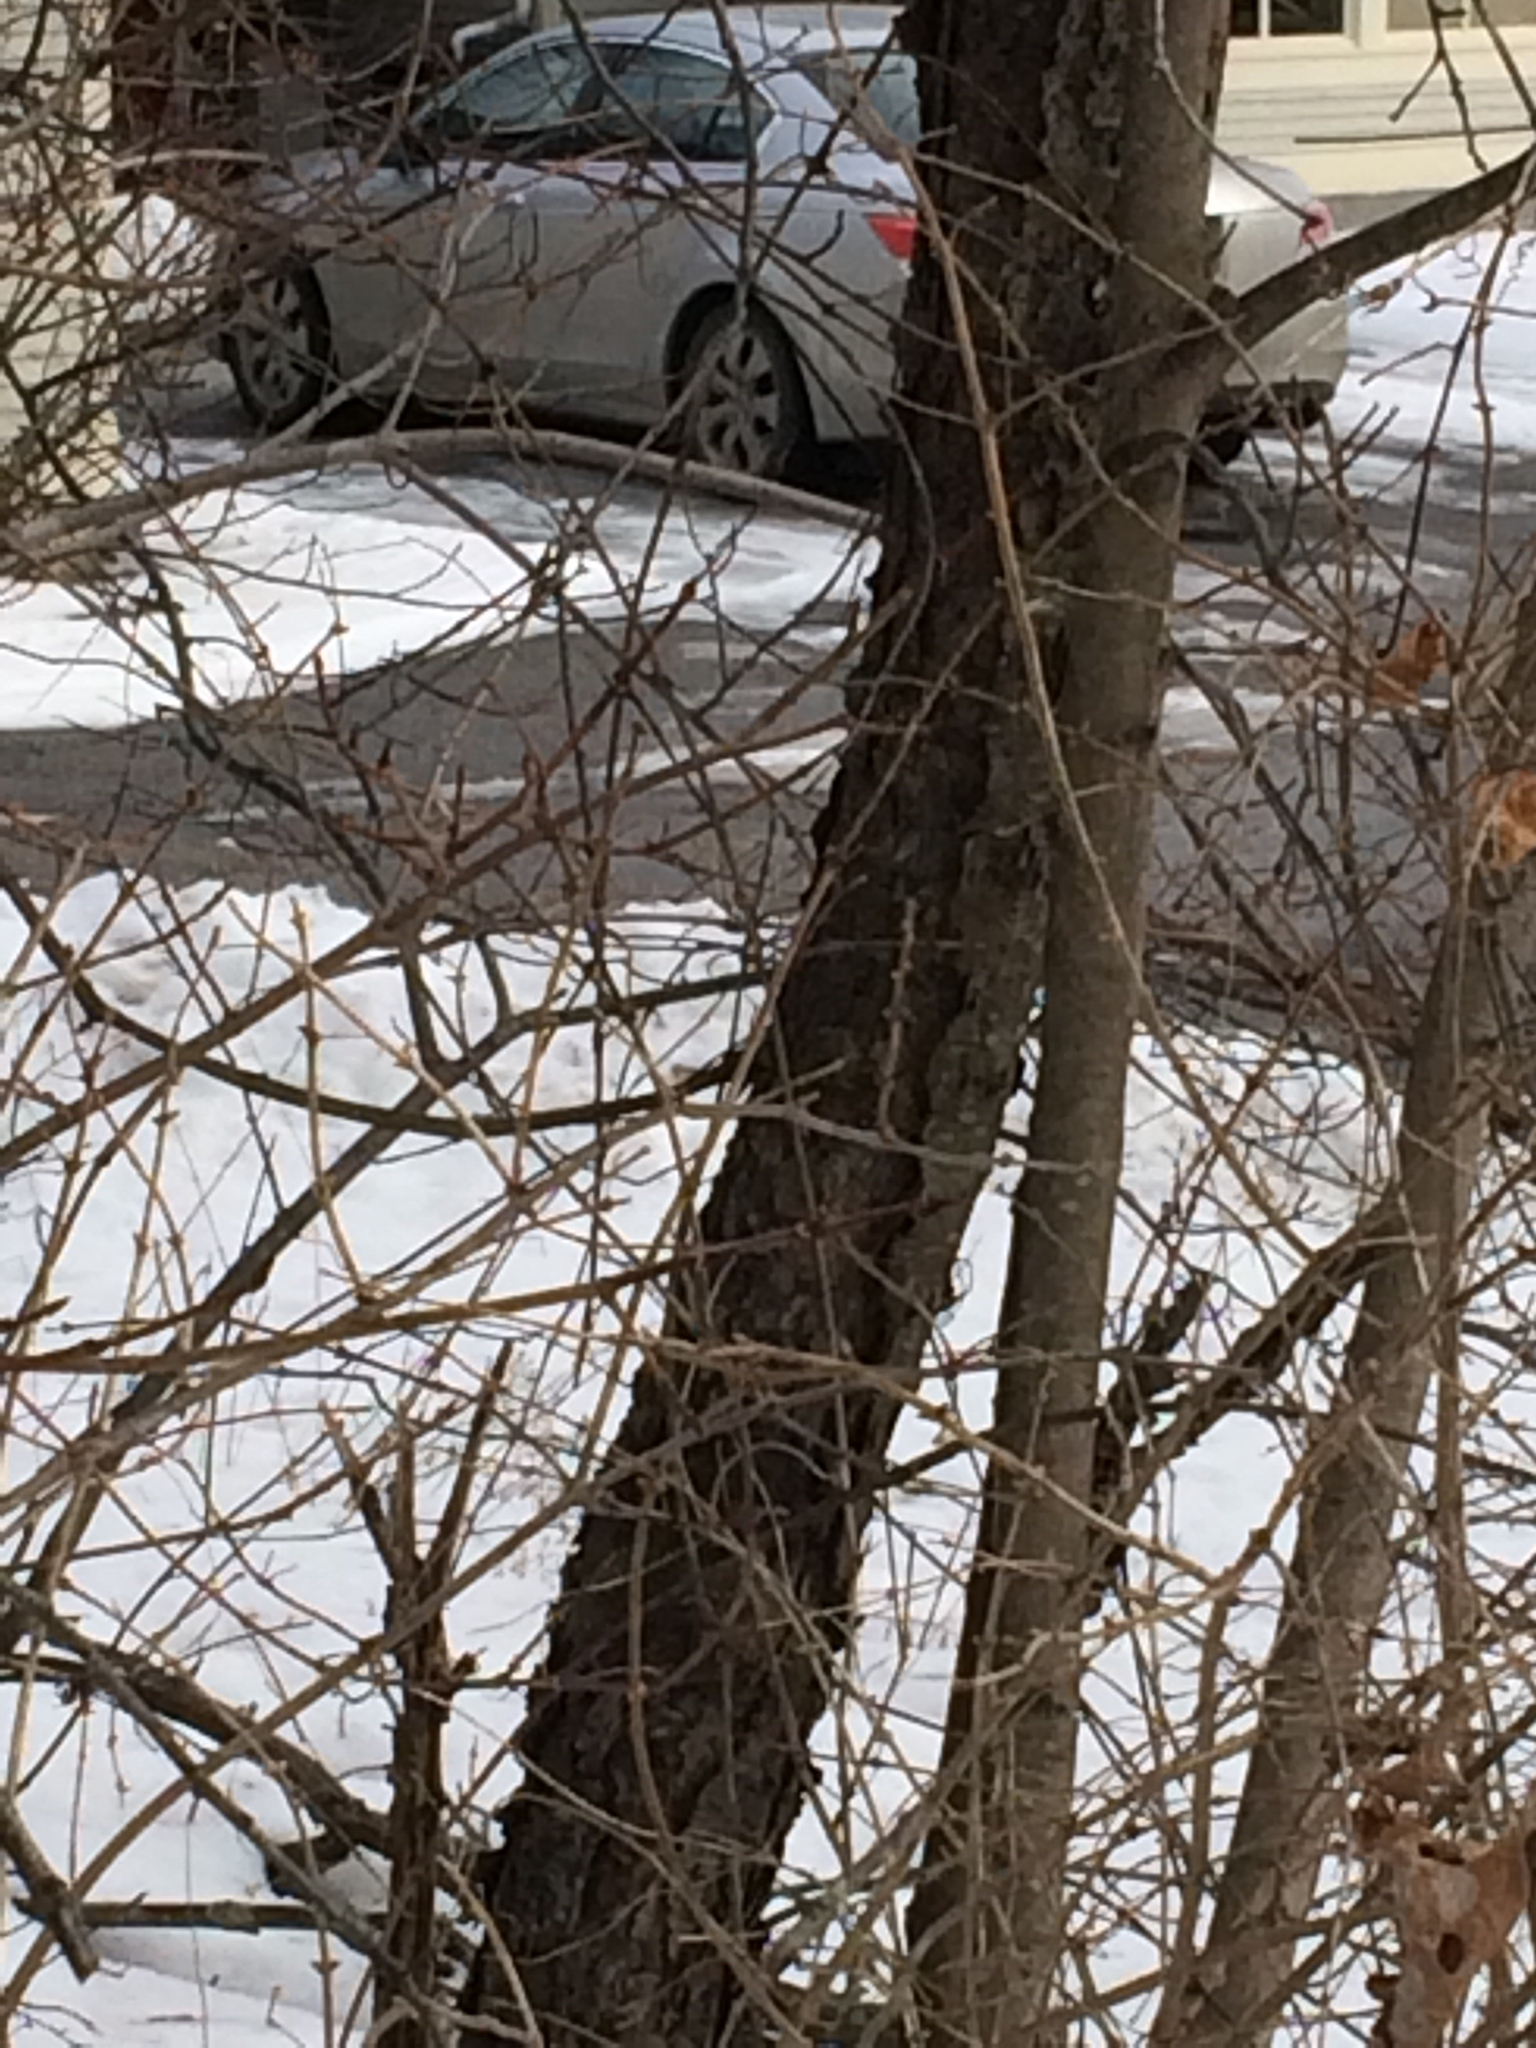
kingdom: Plantae
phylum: Tracheophyta
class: Magnoliopsida
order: Rosales
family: Rosaceae
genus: Prunus
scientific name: Prunus serotina
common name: Black cherry
